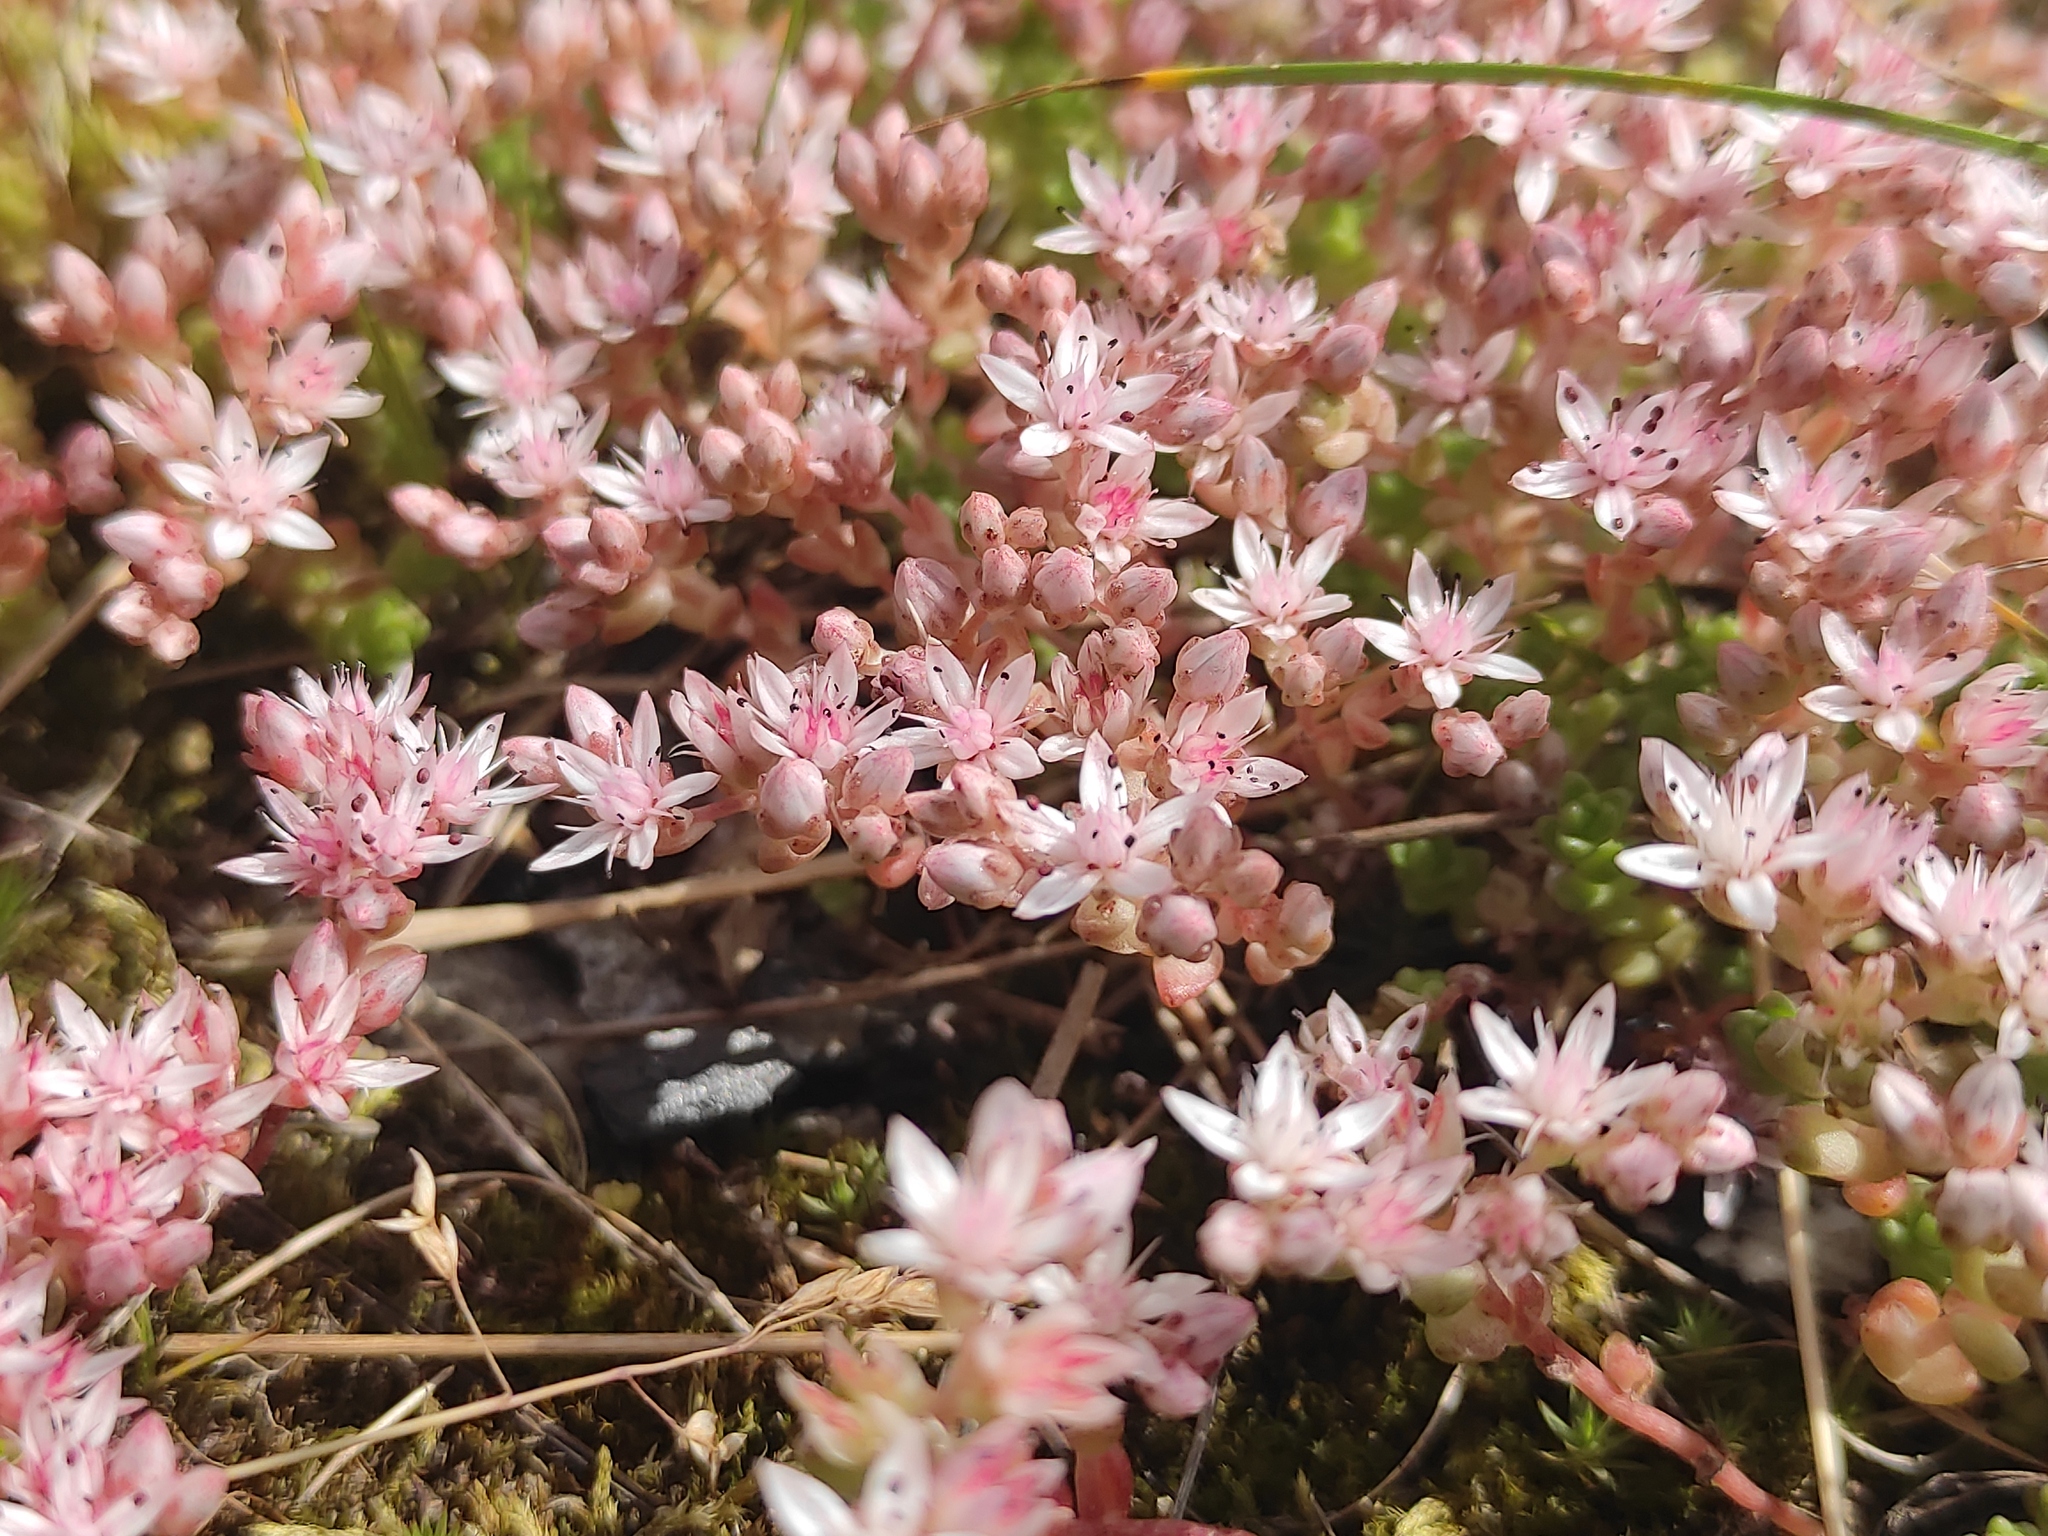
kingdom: Plantae
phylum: Tracheophyta
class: Magnoliopsida
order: Saxifragales
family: Crassulaceae
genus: Sedum
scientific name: Sedum anglicum
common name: English stonecrop
